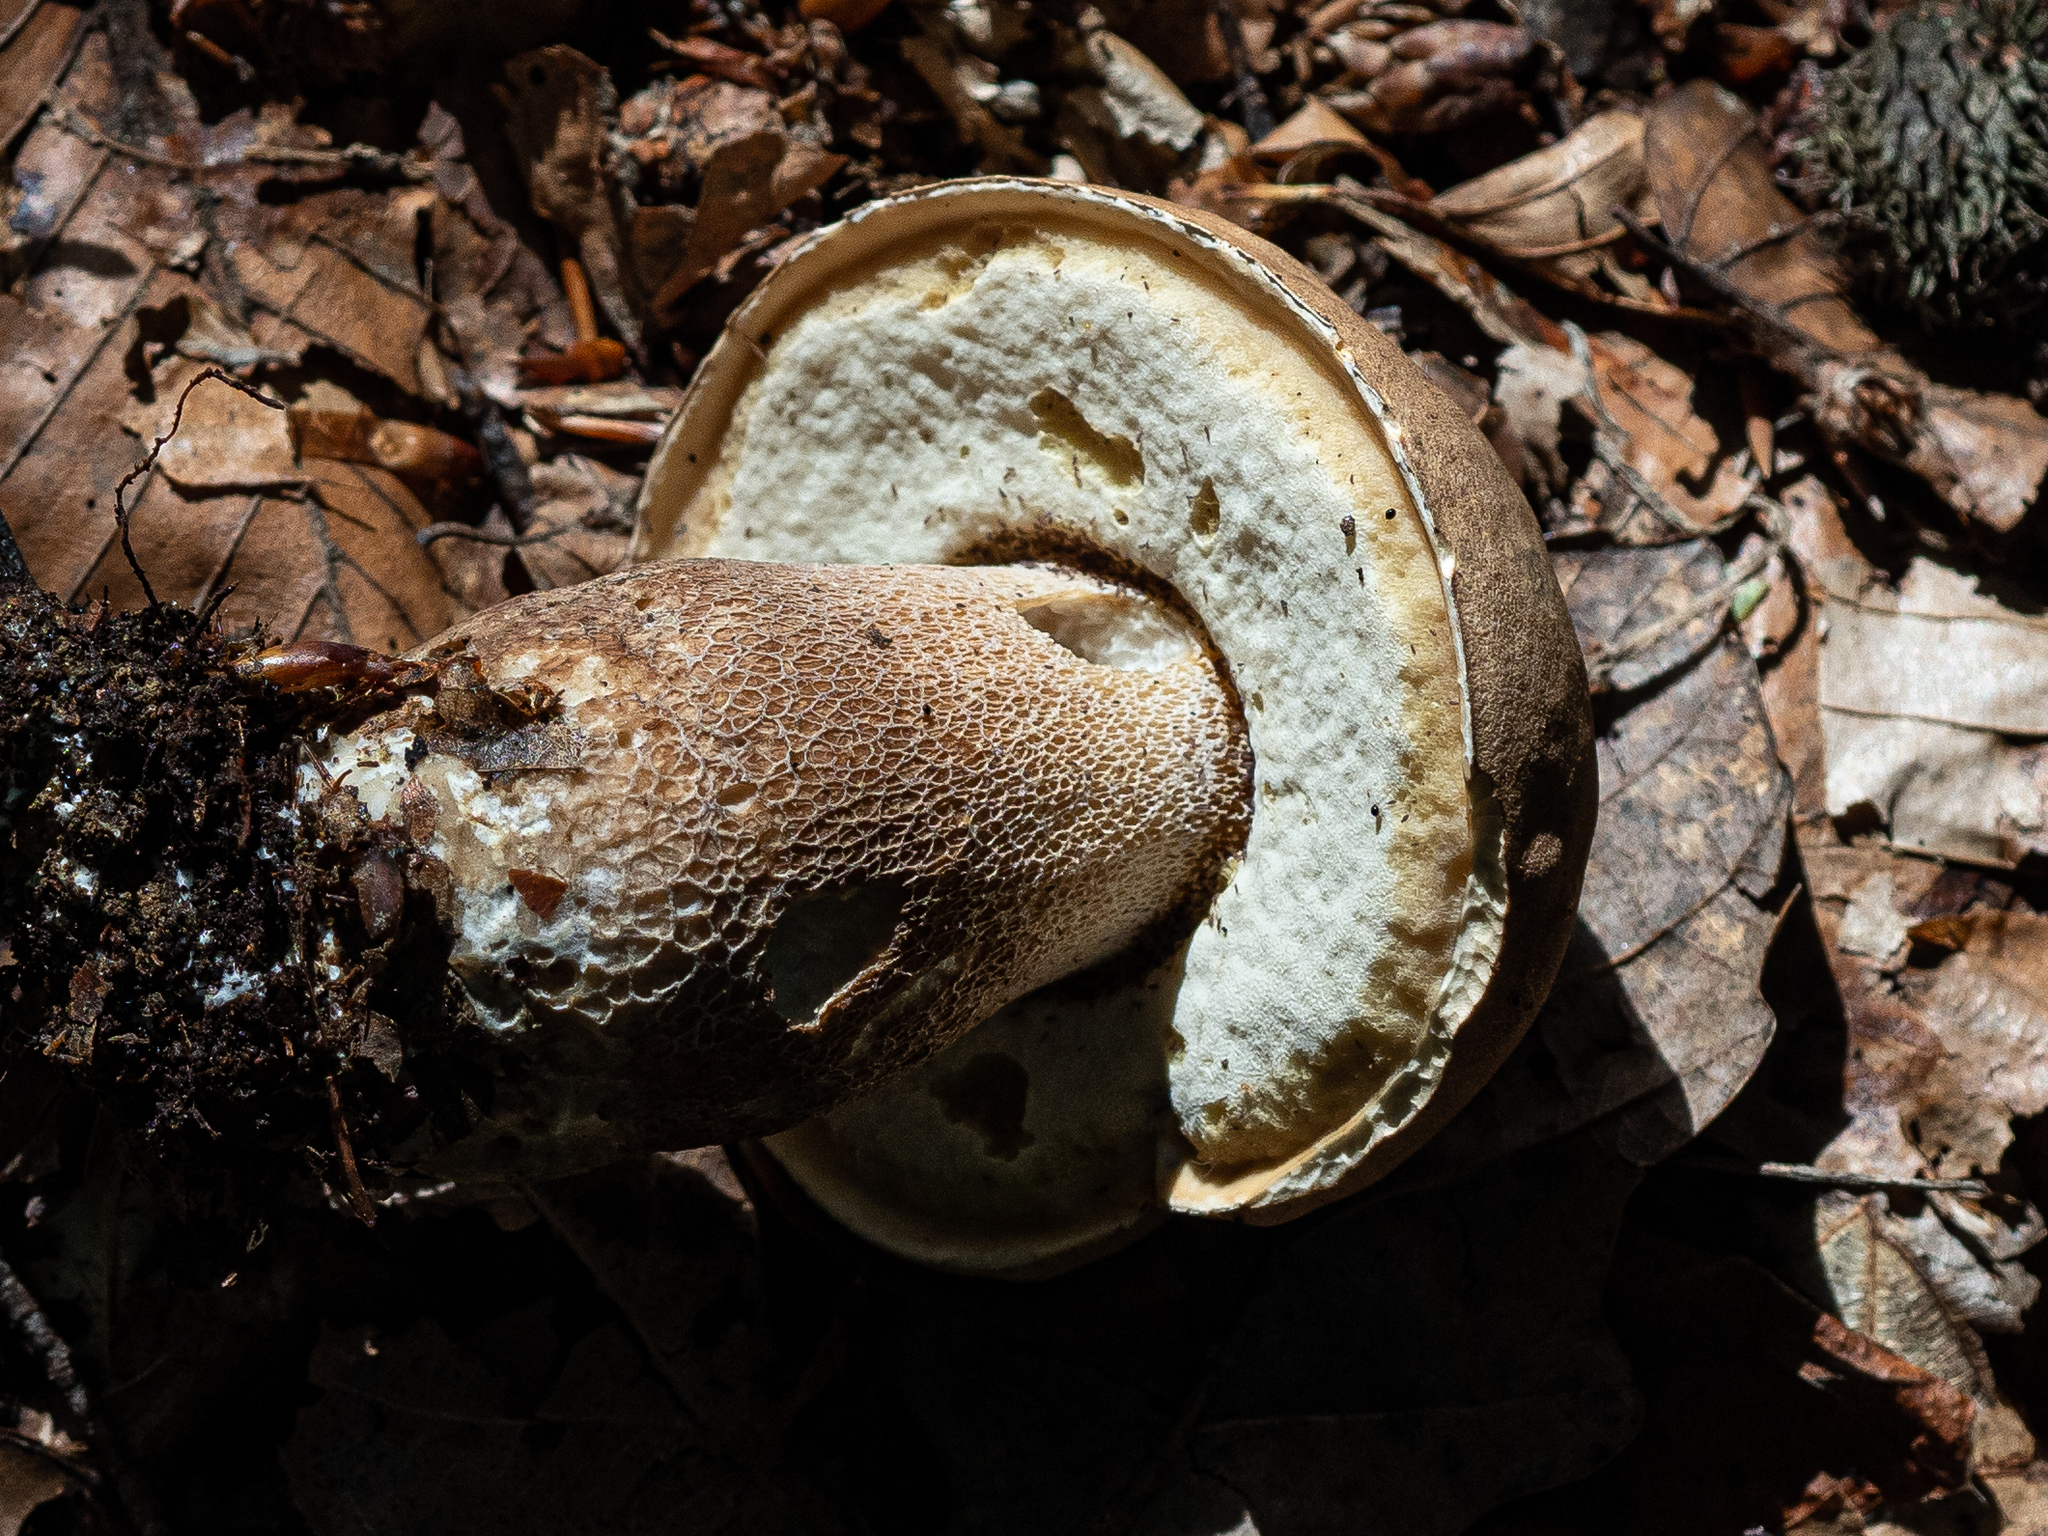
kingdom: Fungi
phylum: Basidiomycota
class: Agaricomycetes
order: Boletales
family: Boletaceae
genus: Boletus
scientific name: Boletus reticulatus
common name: Summer bolete
